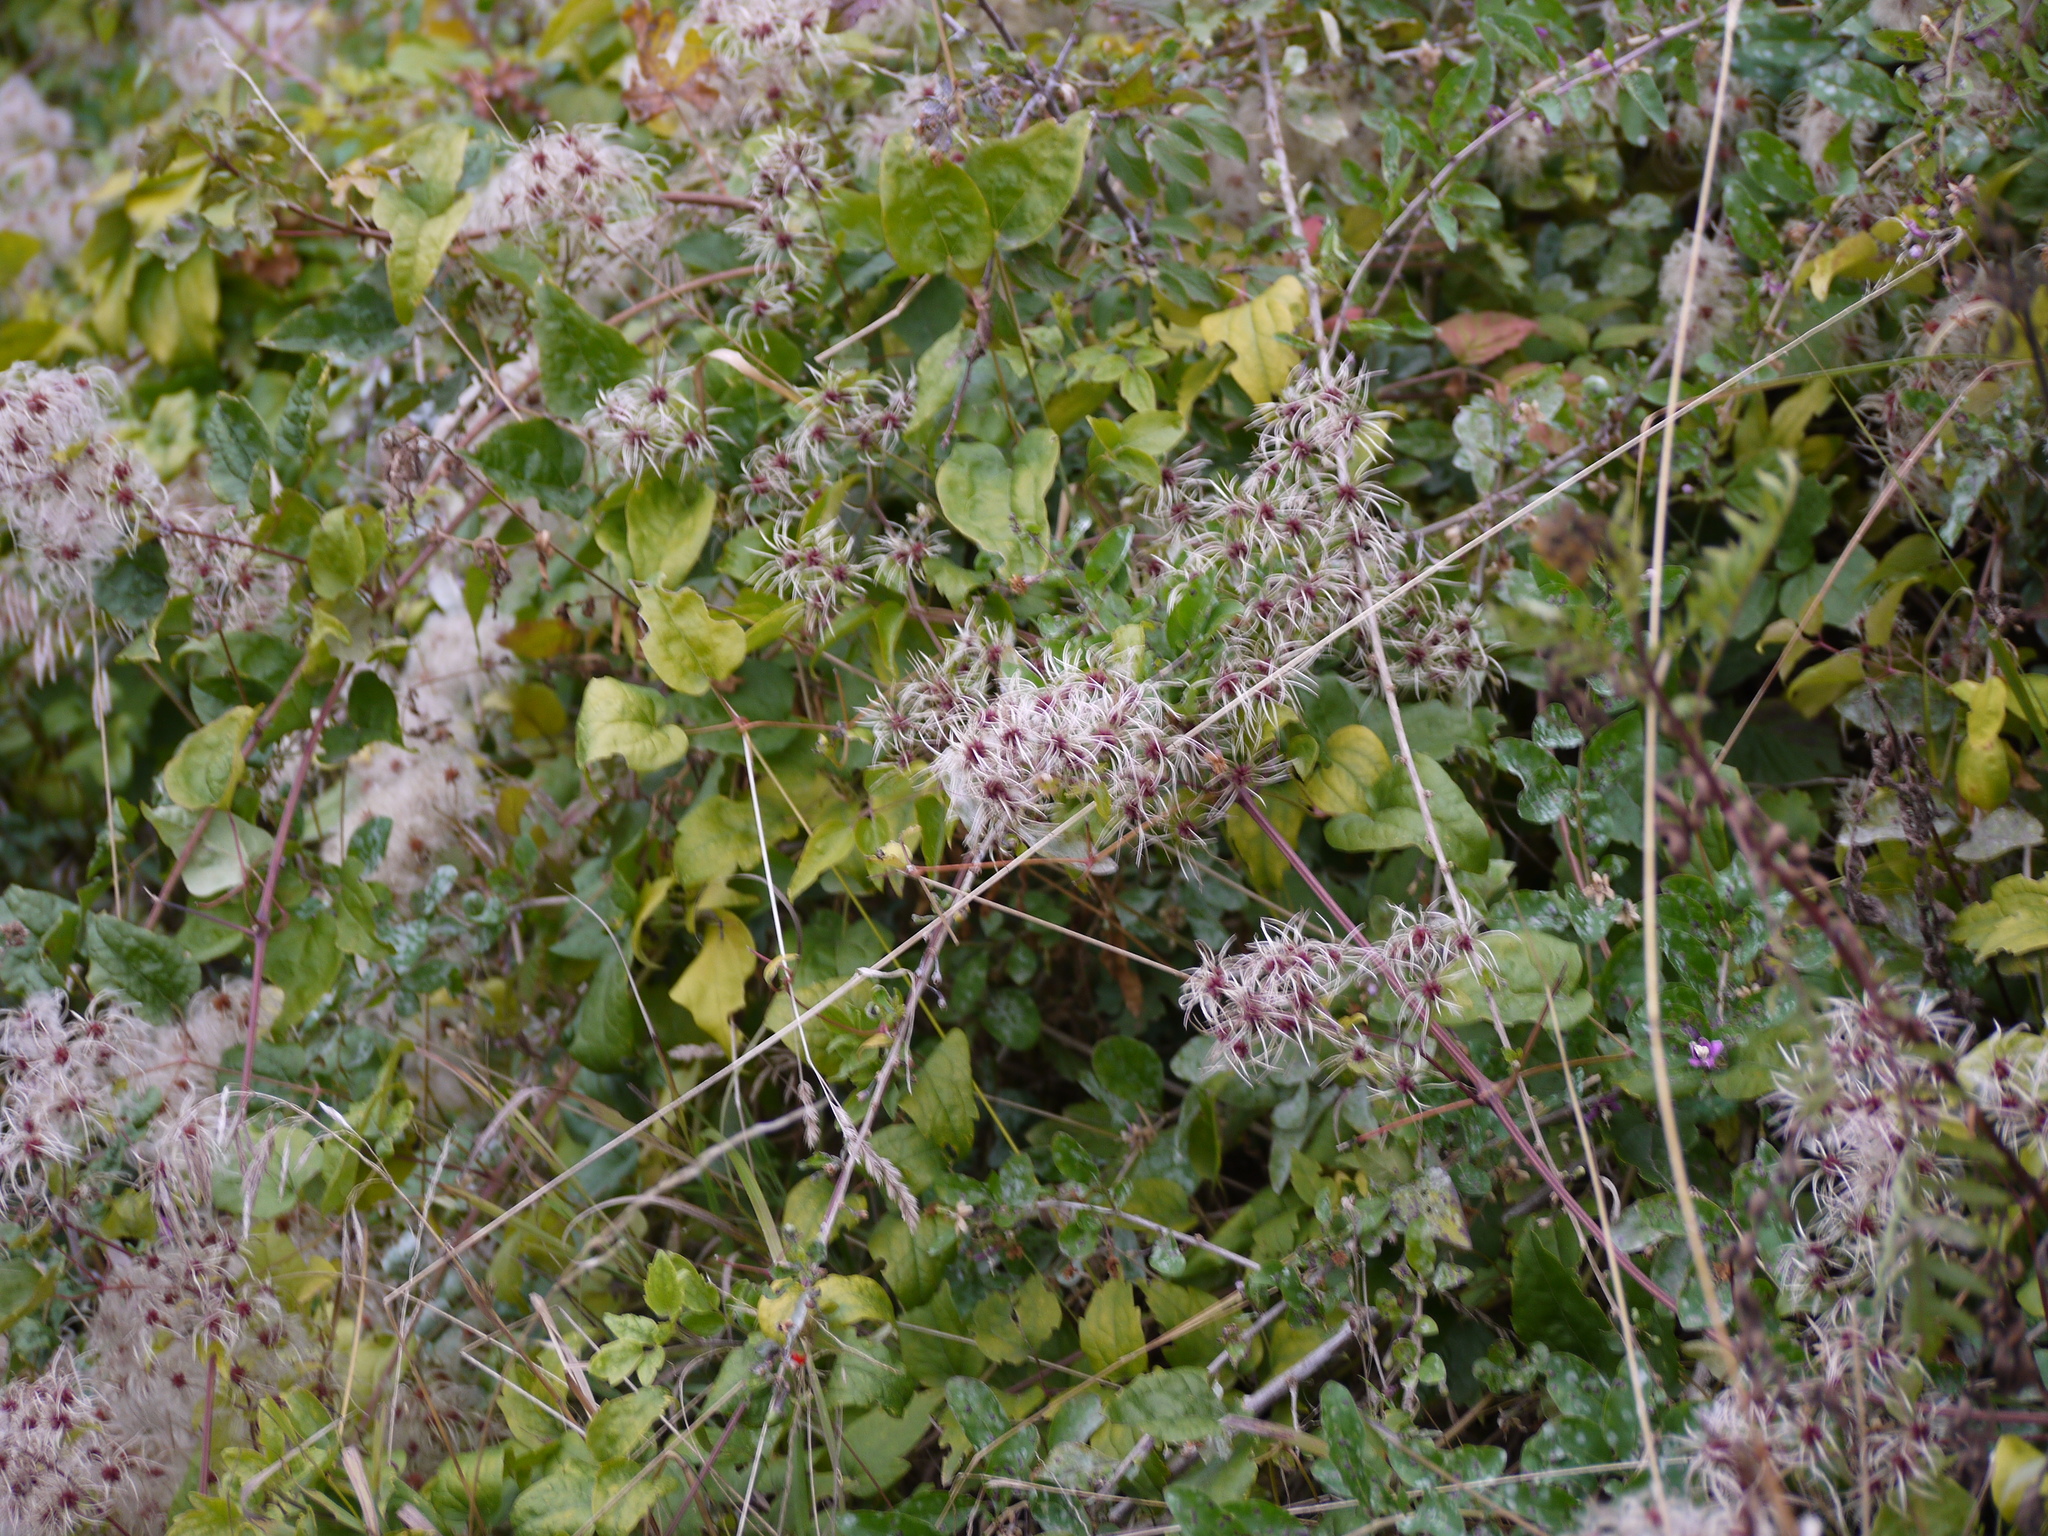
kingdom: Plantae
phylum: Tracheophyta
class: Magnoliopsida
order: Ranunculales
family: Ranunculaceae
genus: Clematis
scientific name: Clematis vitalba
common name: Evergreen clematis
